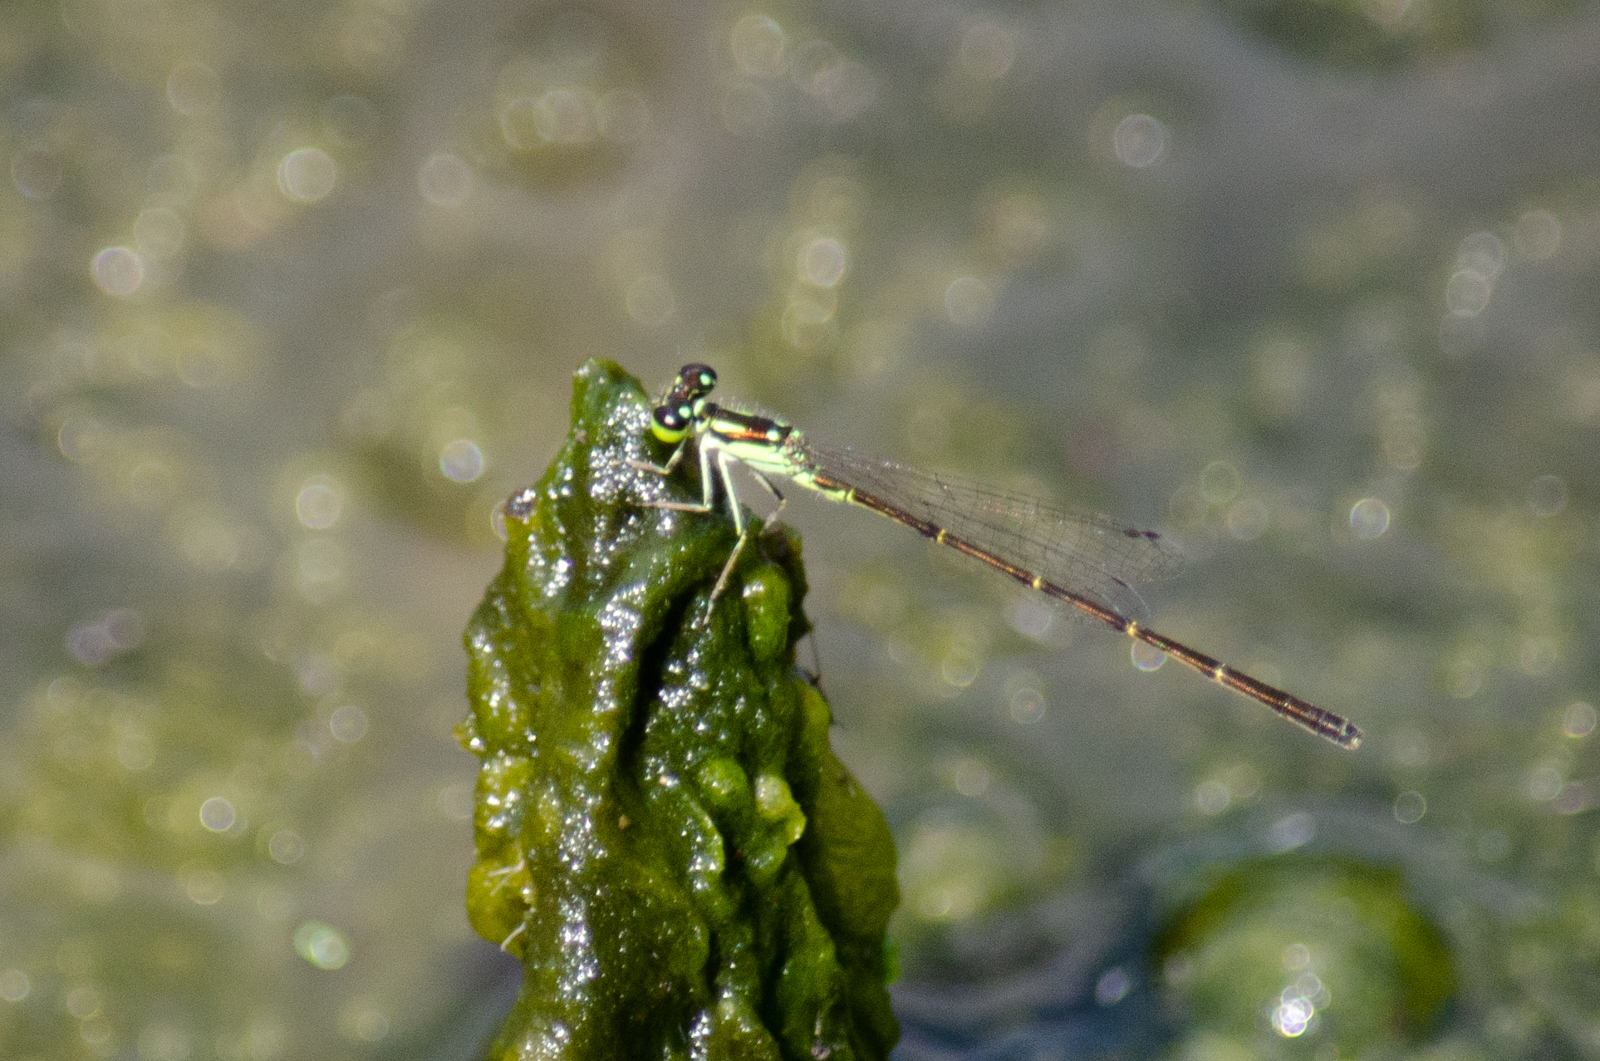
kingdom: Animalia
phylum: Arthropoda
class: Insecta
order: Odonata
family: Coenagrionidae
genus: Ischnura
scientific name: Ischnura posita
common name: Fragile forktail
